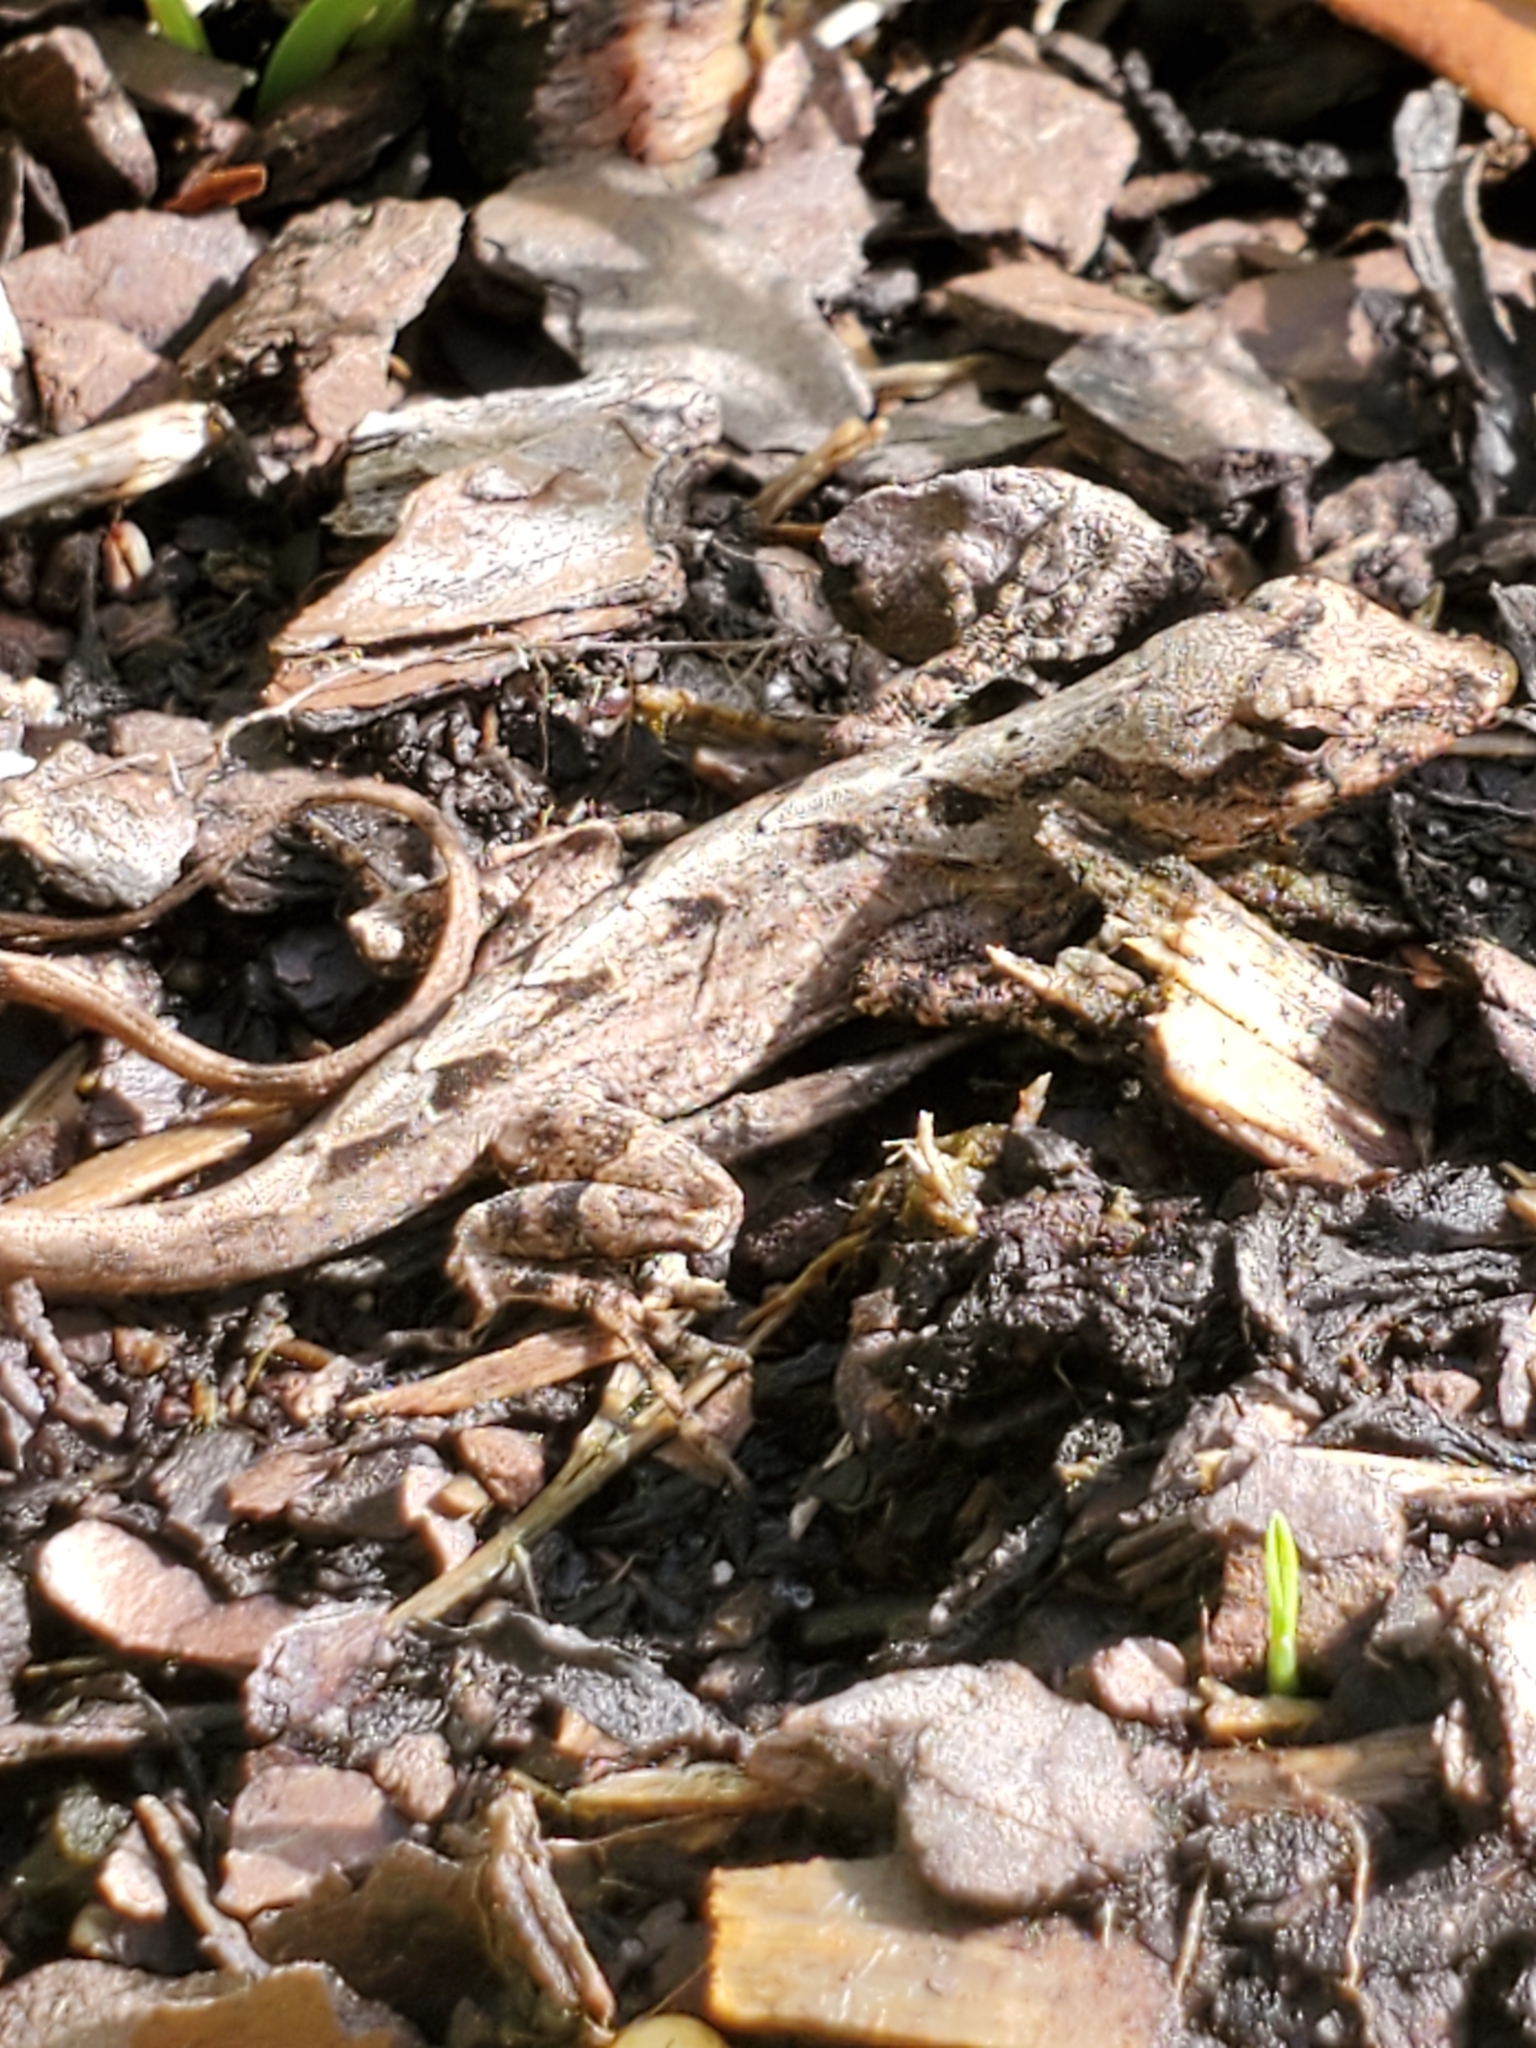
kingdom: Animalia
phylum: Chordata
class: Squamata
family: Dactyloidae
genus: Anolis
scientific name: Anolis sagrei
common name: Brown anole
